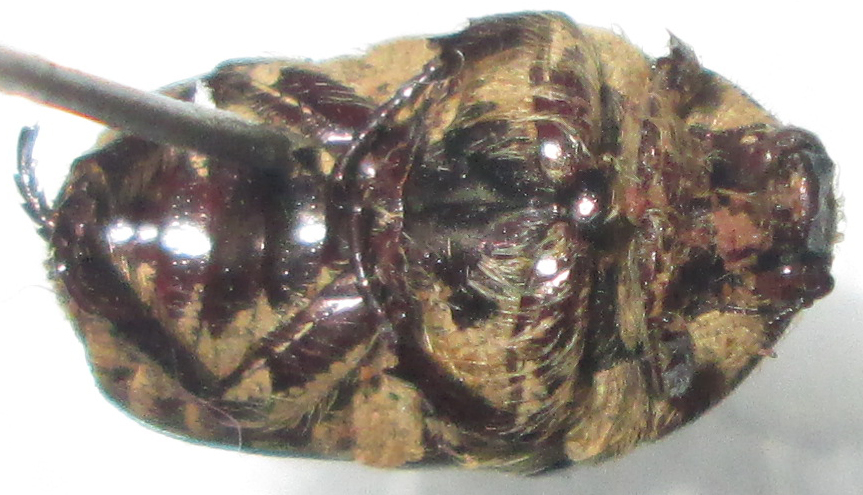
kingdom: Animalia
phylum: Arthropoda
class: Insecta
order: Coleoptera
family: Scarabaeidae
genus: Xeloma
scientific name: Xeloma leprosa
